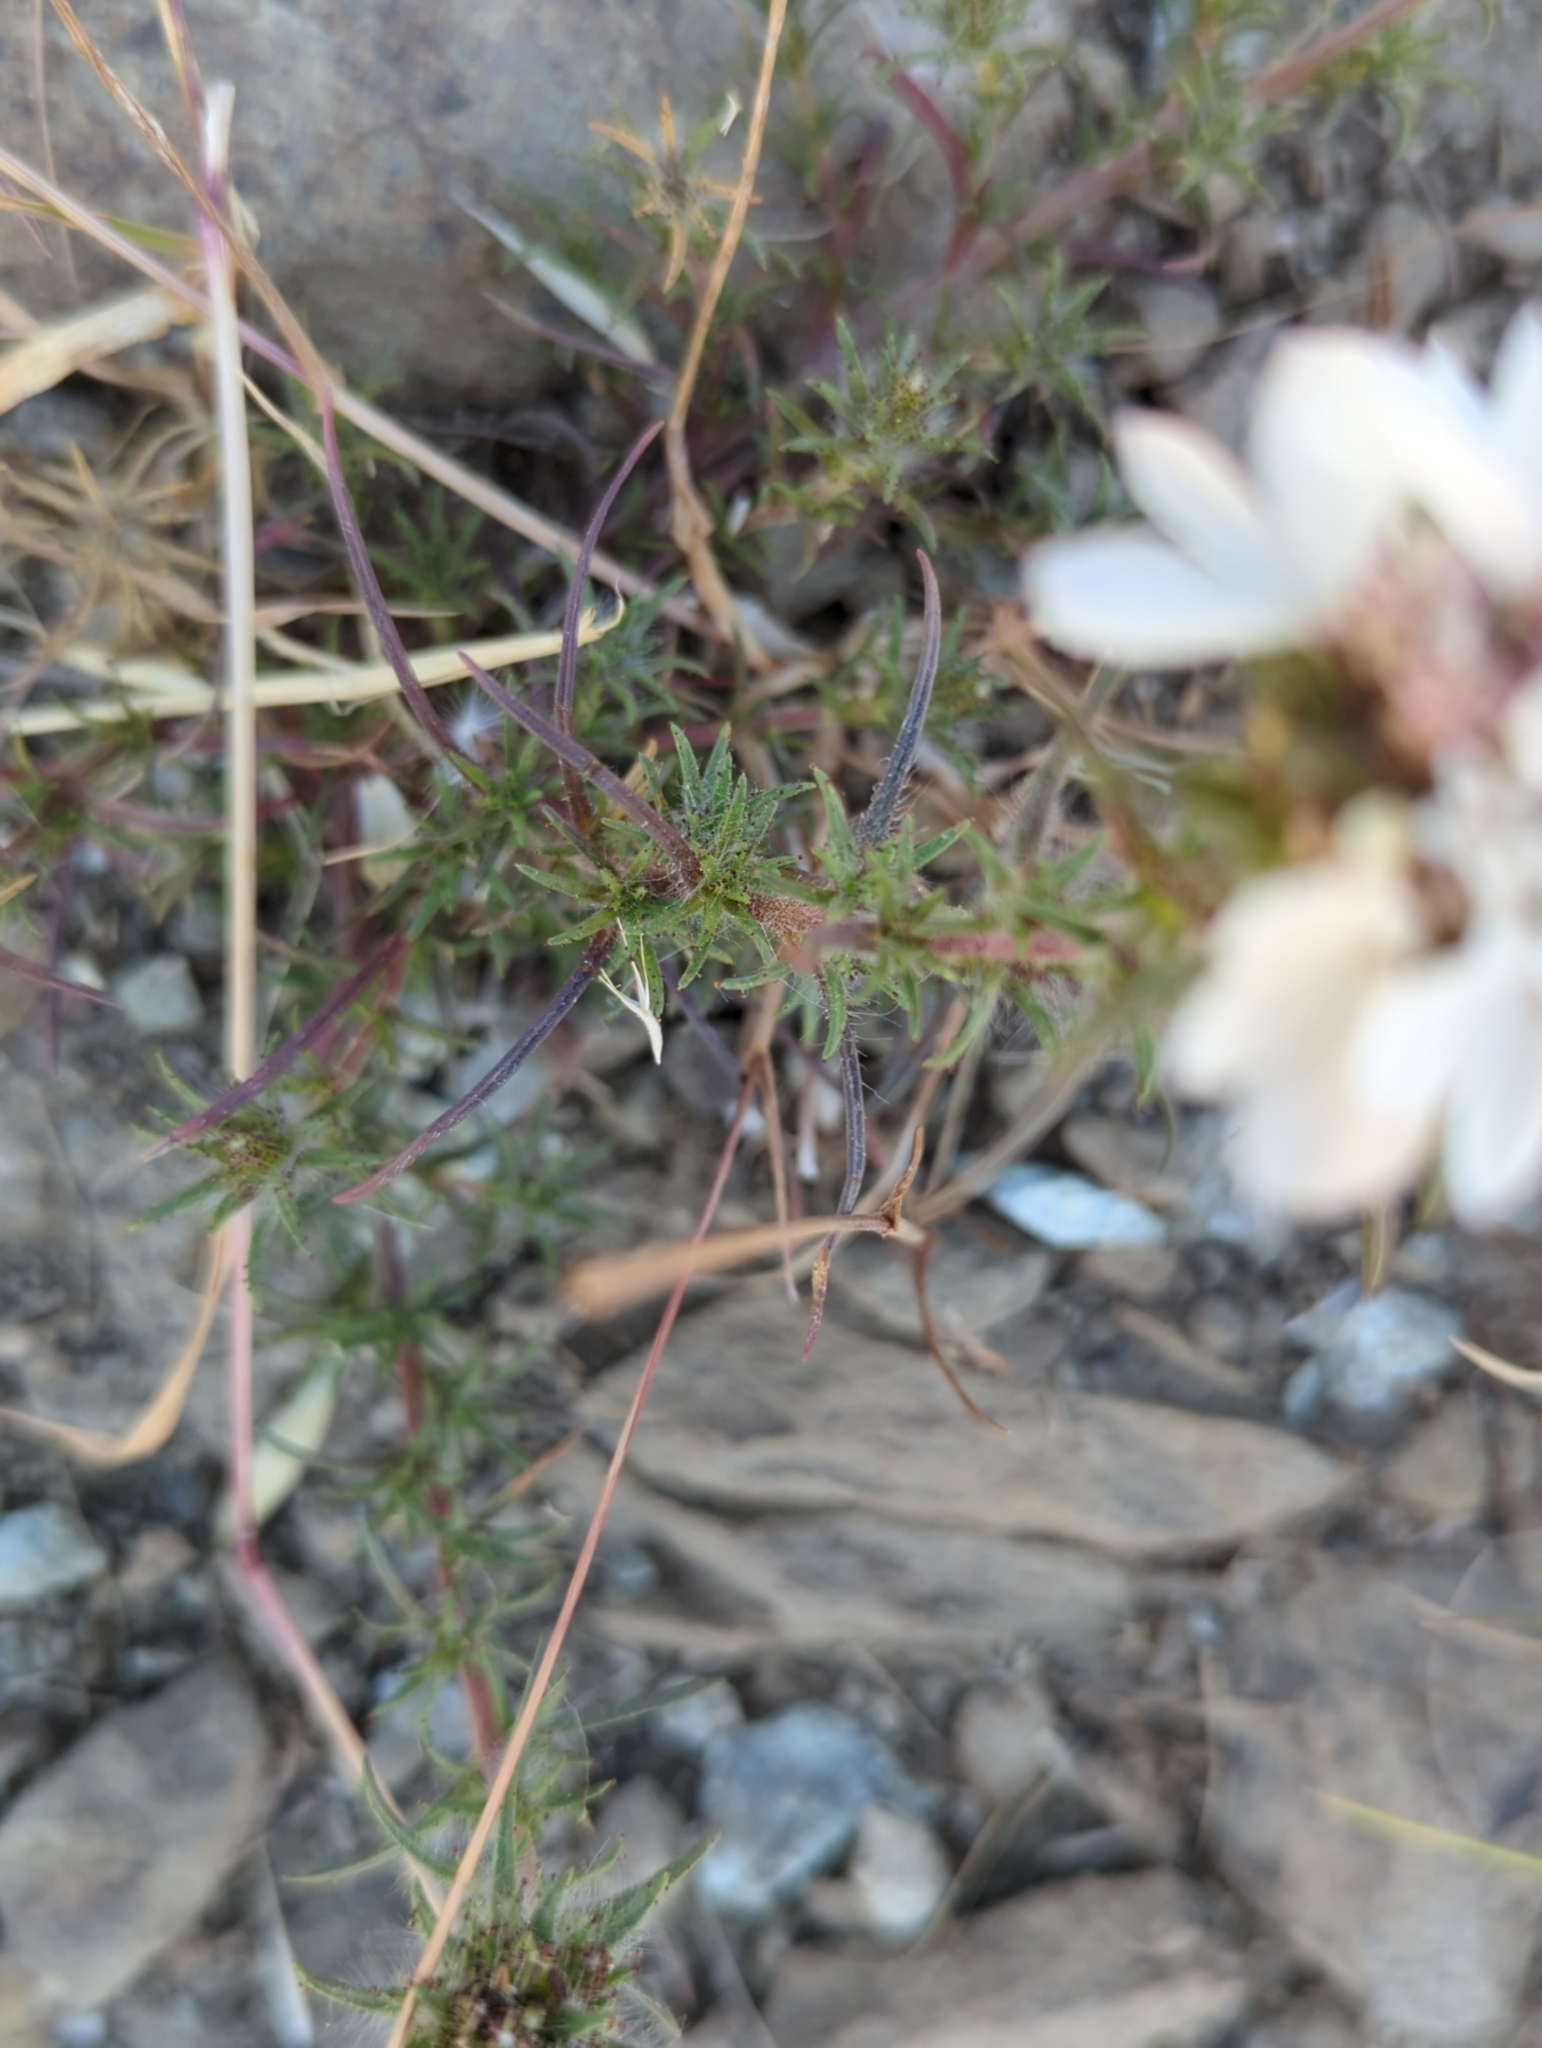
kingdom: Plantae
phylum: Tracheophyta
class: Magnoliopsida
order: Asterales
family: Asteraceae
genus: Calycadenia
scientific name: Calycadenia multiglandulosa
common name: Sticky calycadenia
